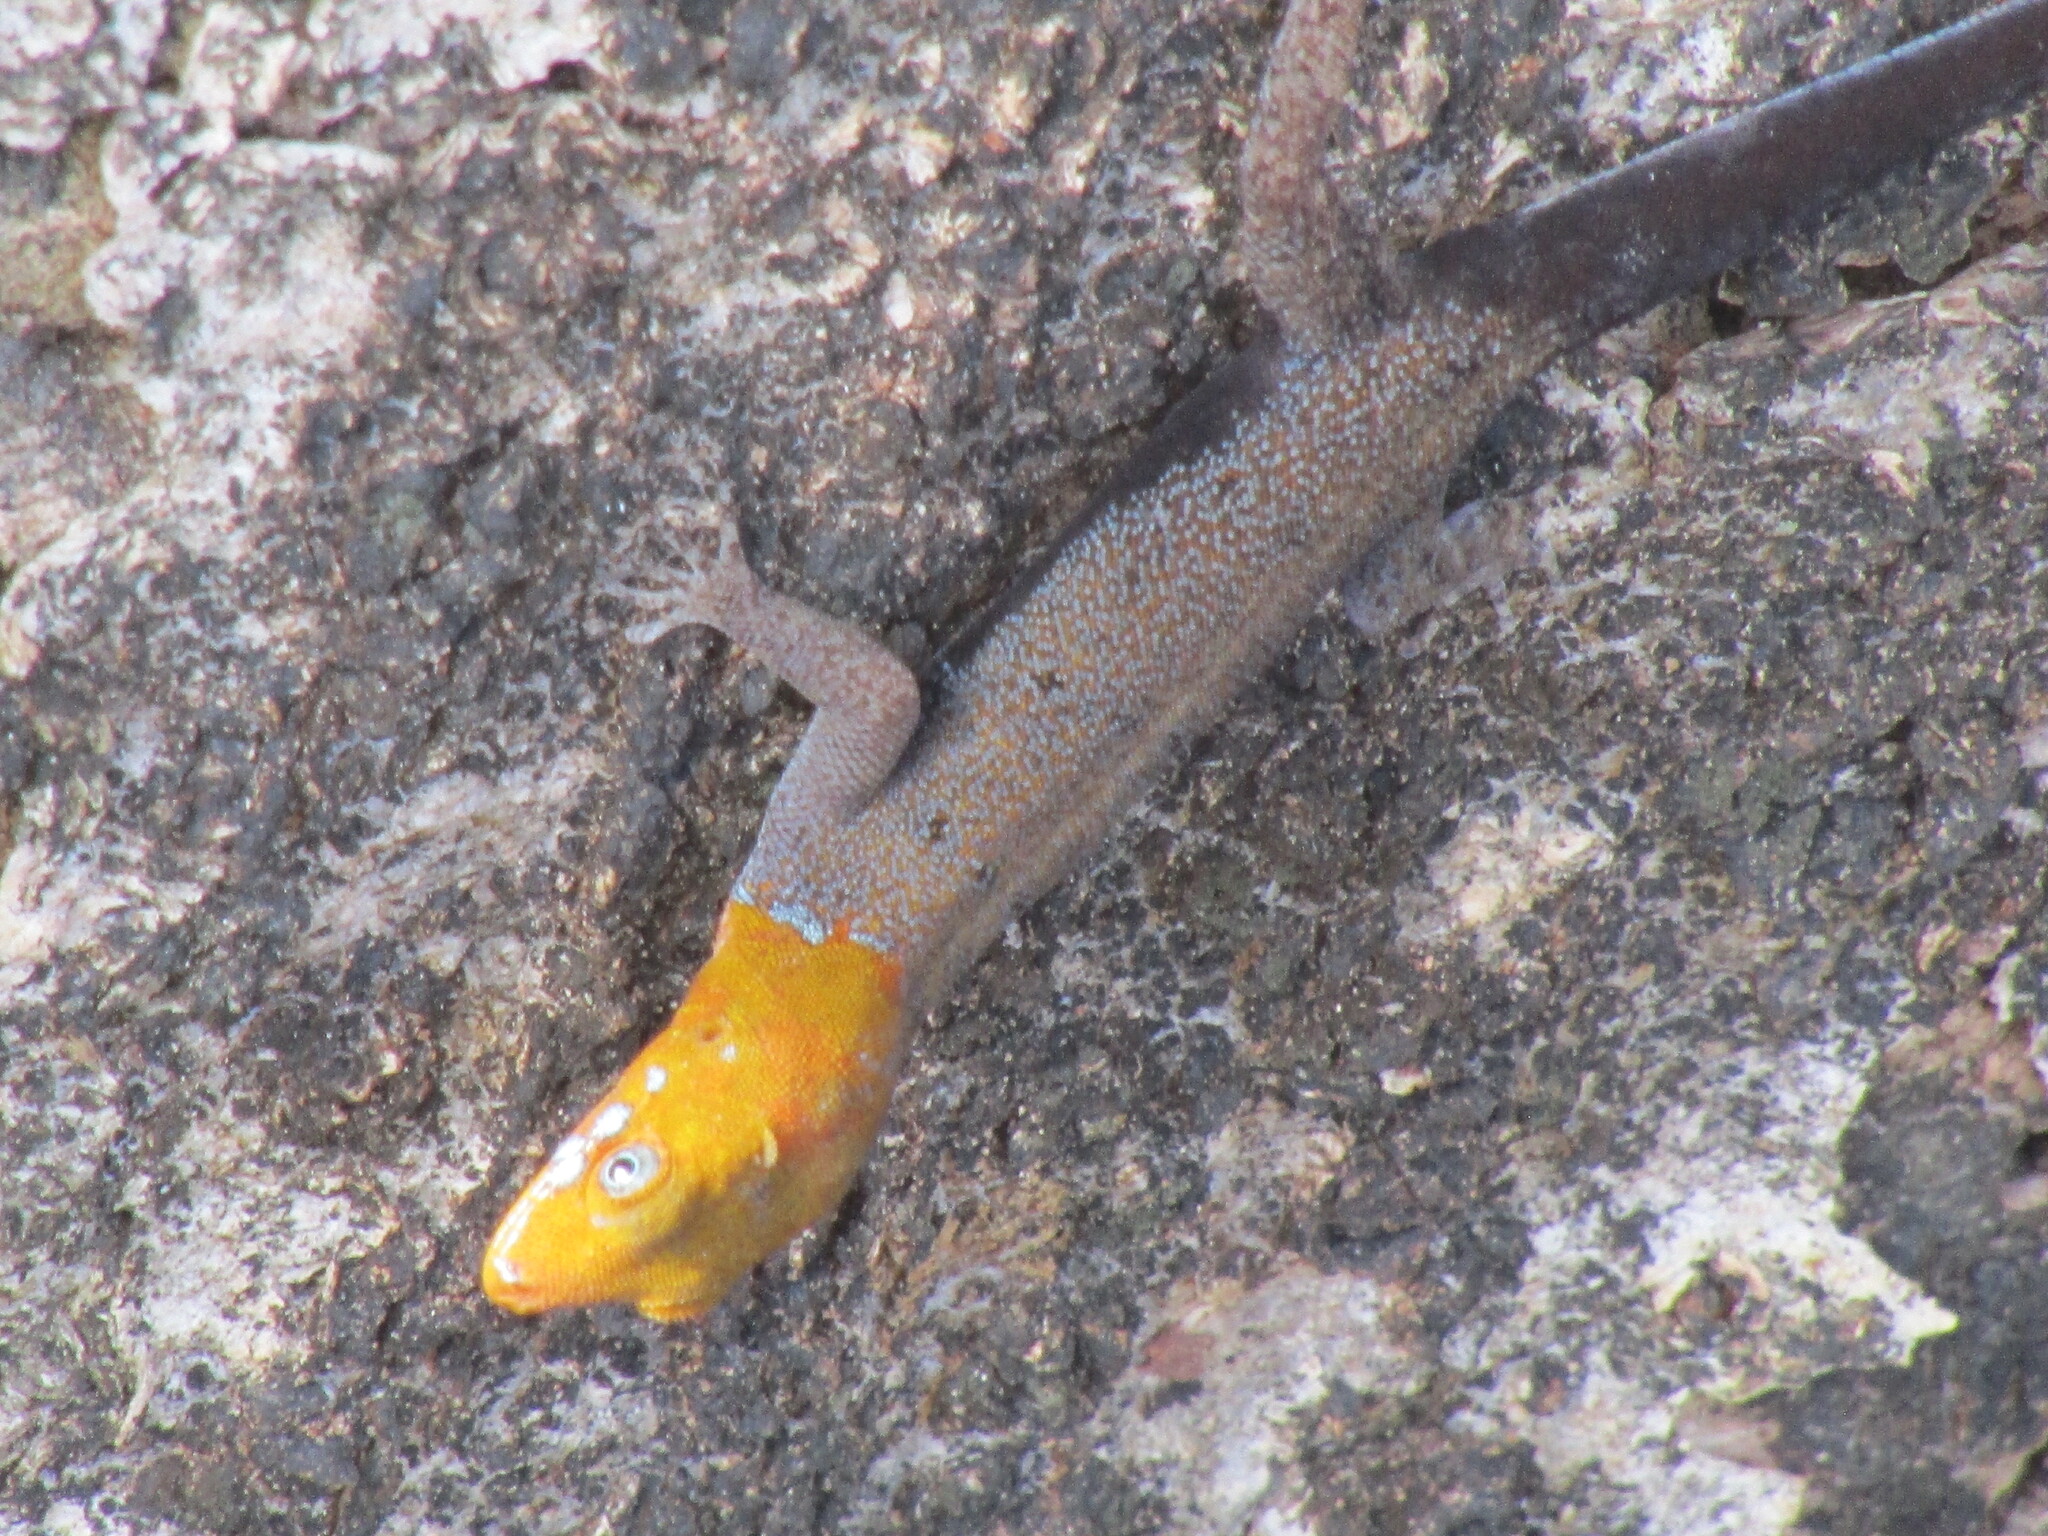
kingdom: Animalia
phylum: Chordata
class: Squamata
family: Sphaerodactylidae
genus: Gonatodes
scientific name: Gonatodes albogularis
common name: Yellow-headed gecko
